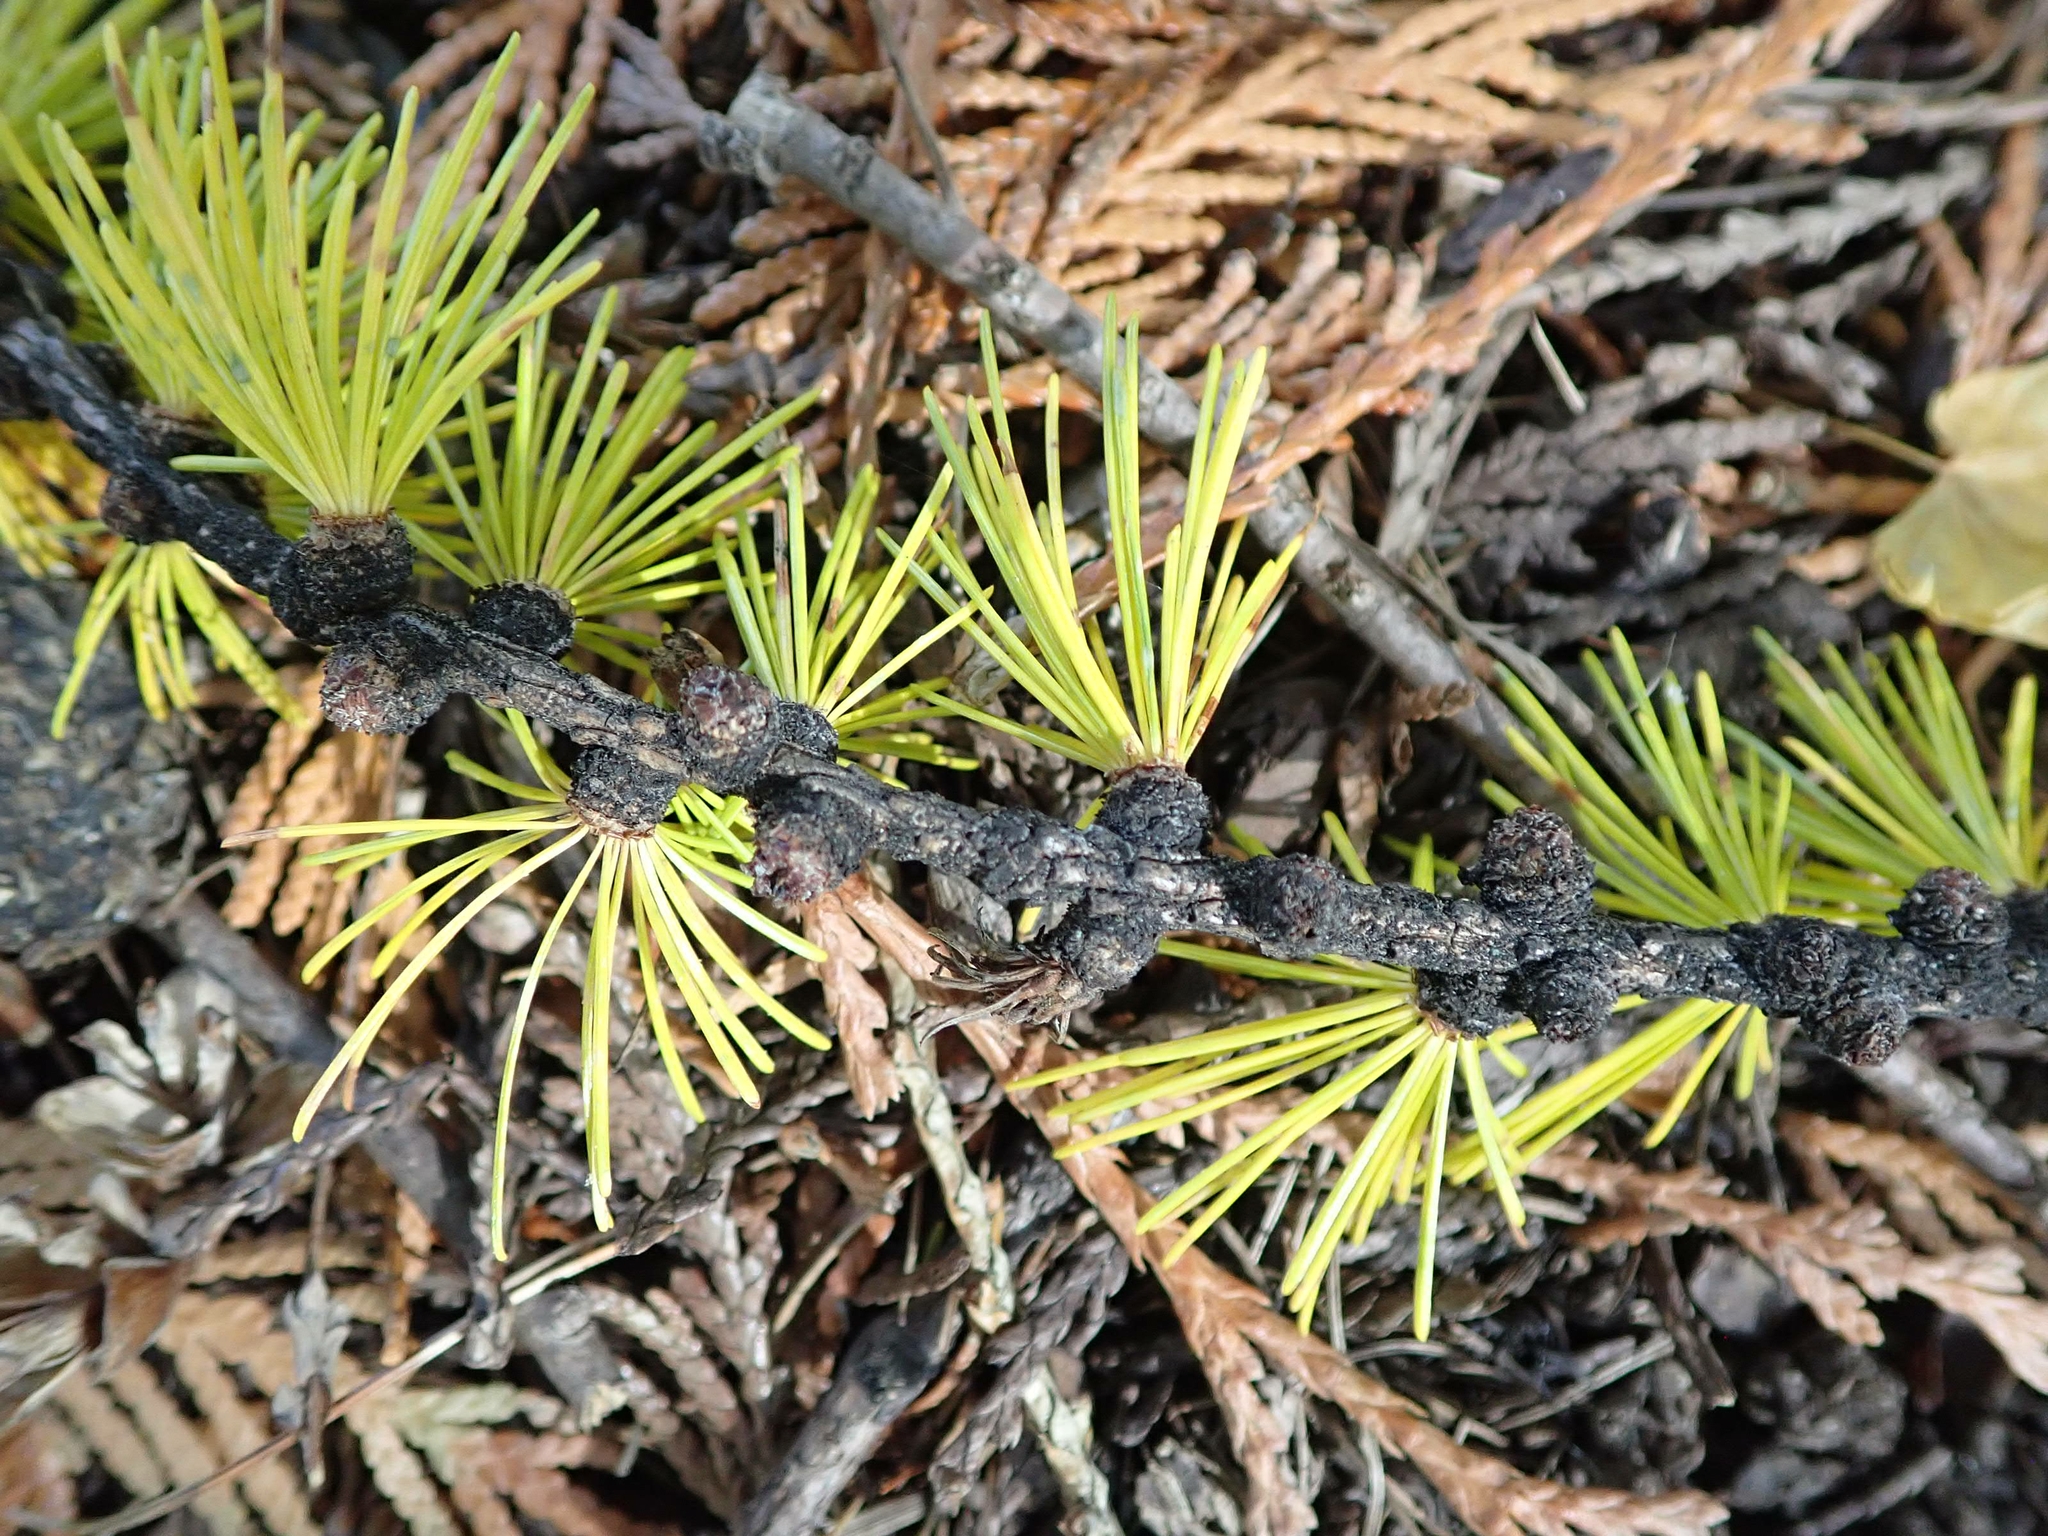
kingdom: Plantae
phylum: Tracheophyta
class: Pinopsida
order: Pinales
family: Pinaceae
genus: Larix
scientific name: Larix occidentalis
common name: Western larch
